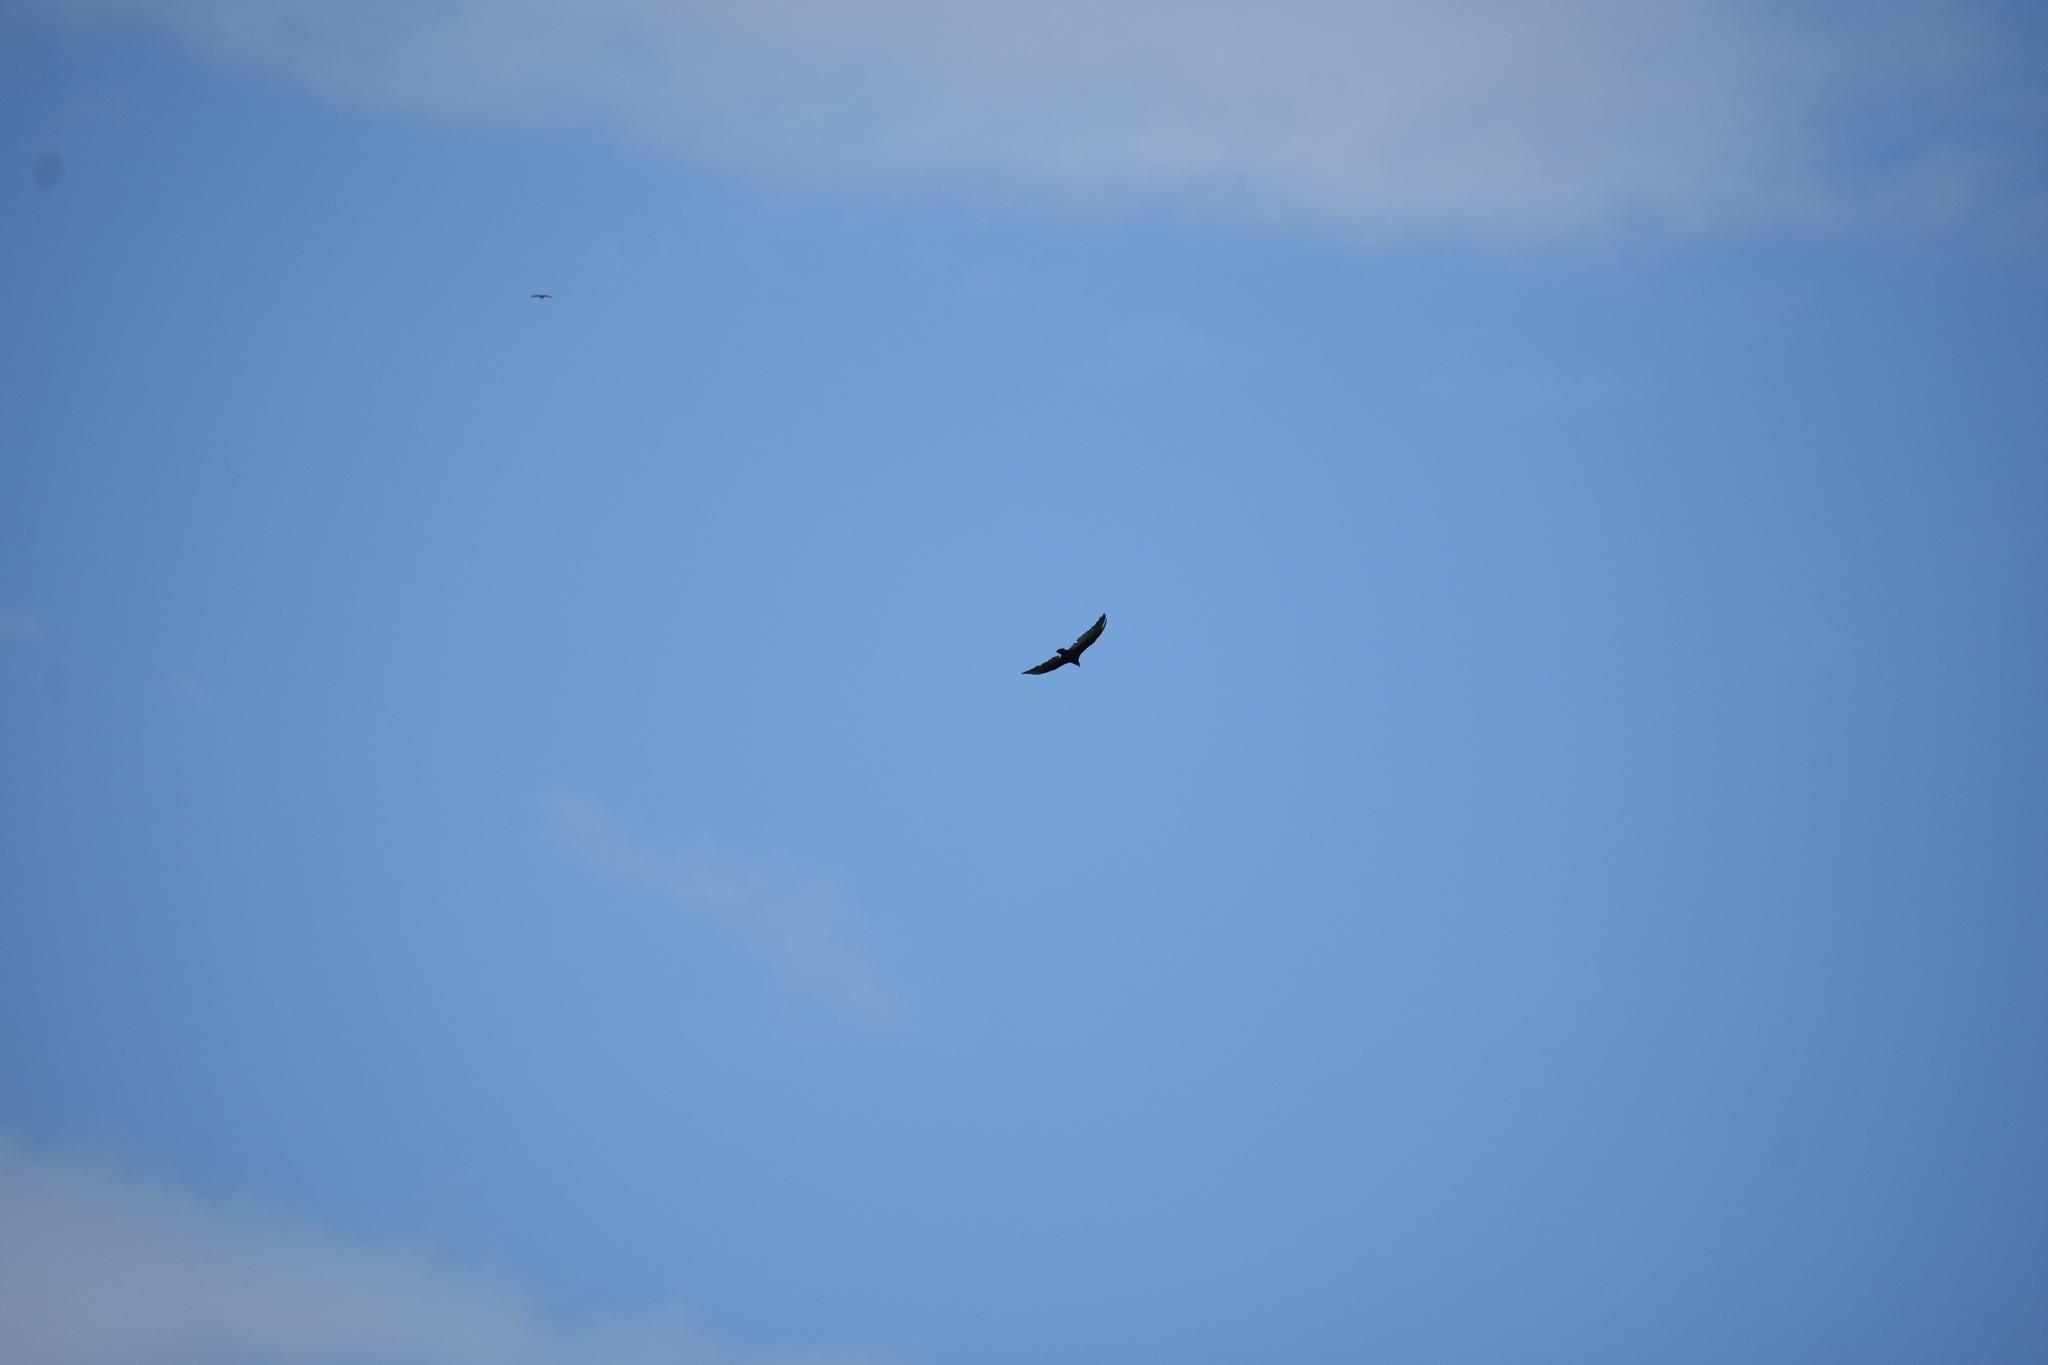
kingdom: Animalia
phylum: Chordata
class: Aves
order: Accipitriformes
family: Cathartidae
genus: Cathartes
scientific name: Cathartes aura
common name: Turkey vulture
